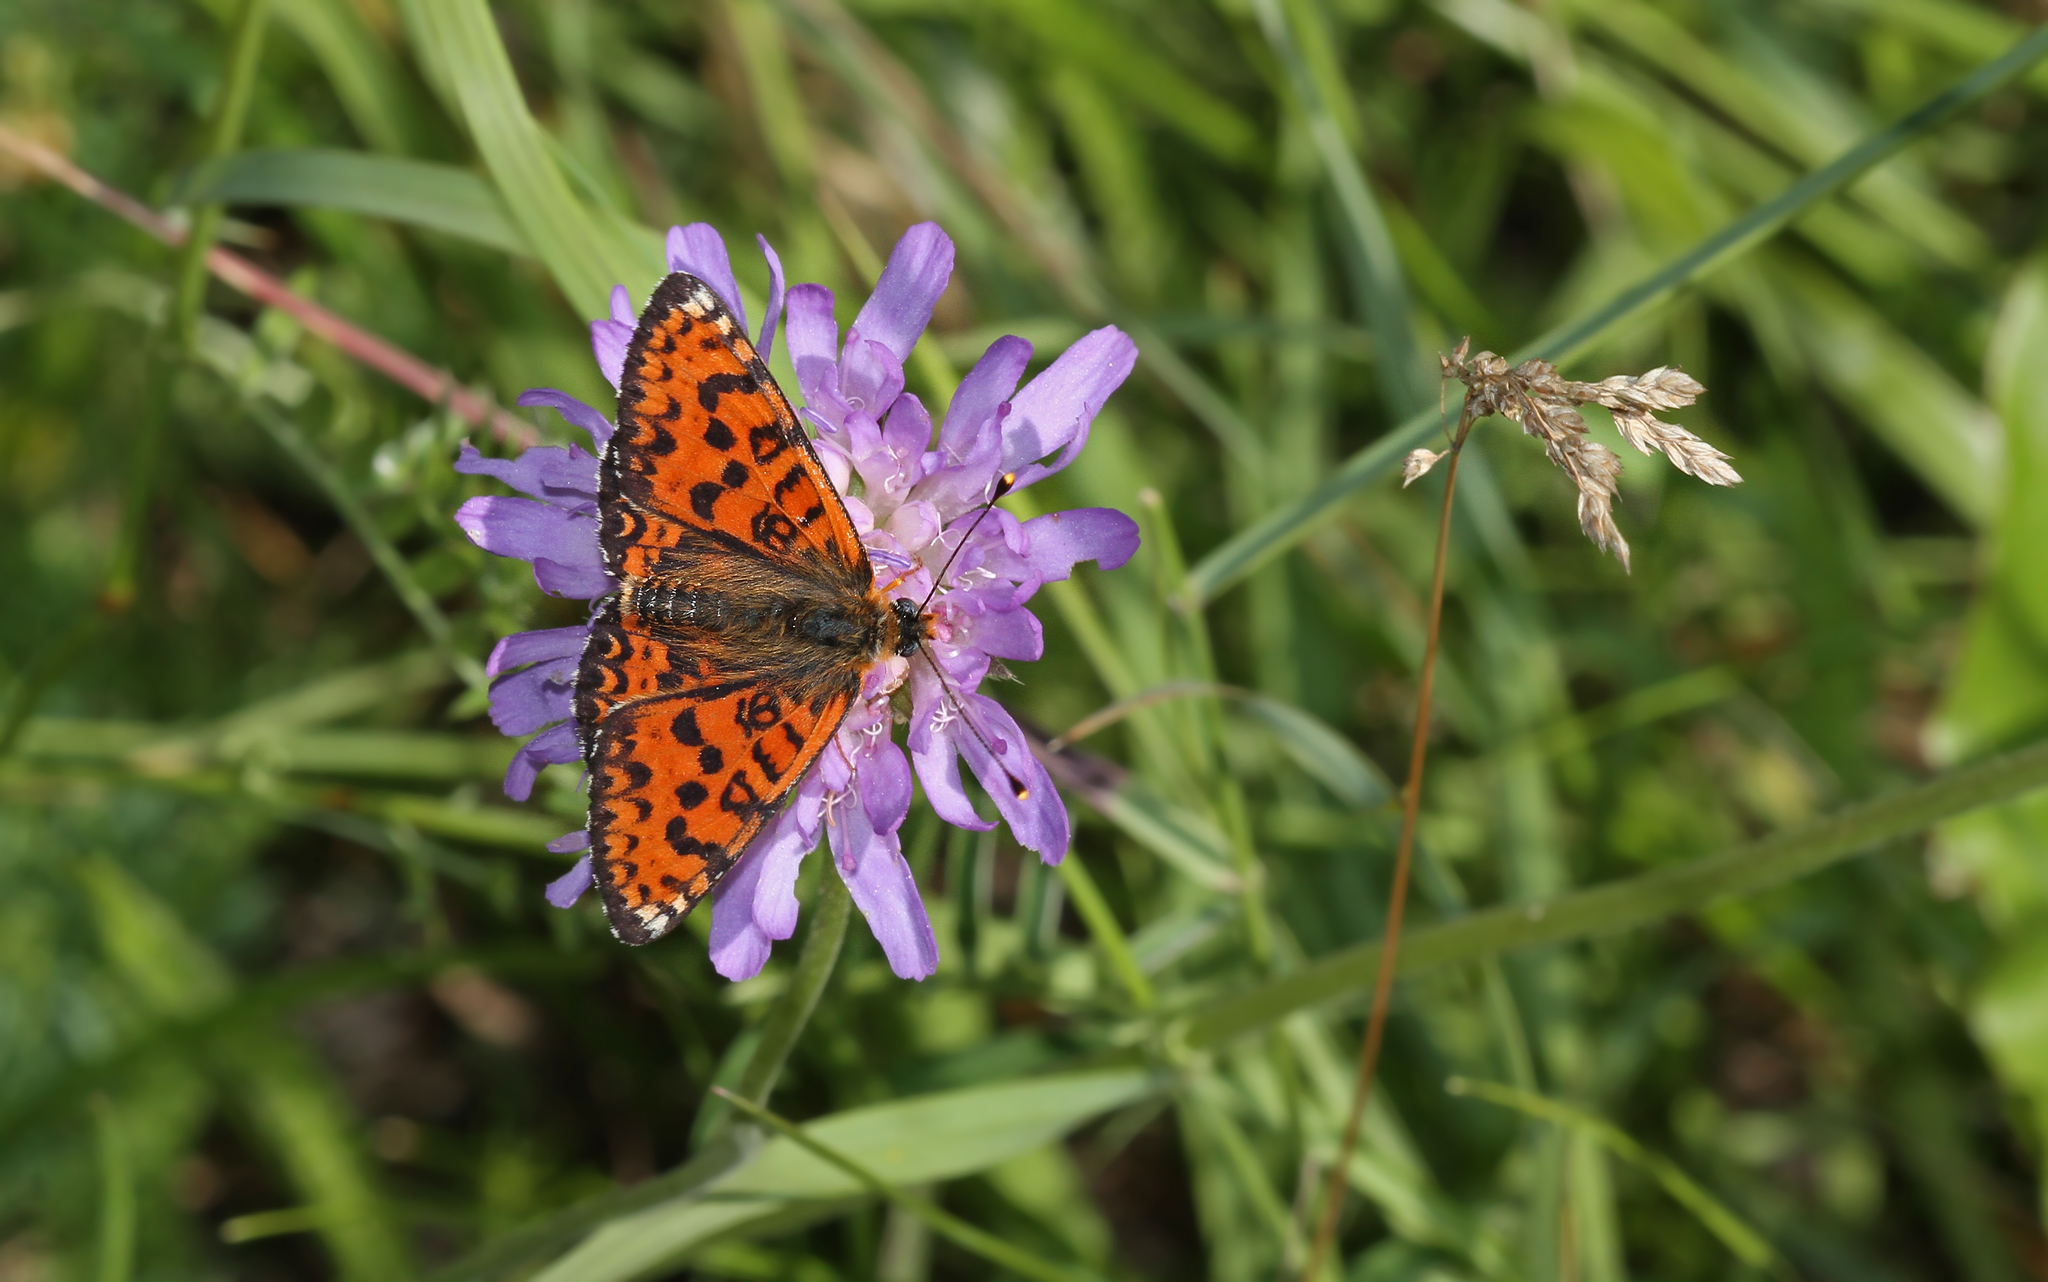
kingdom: Animalia
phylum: Arthropoda
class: Insecta
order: Lepidoptera
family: Nymphalidae
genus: Melitaea
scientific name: Melitaea didyma
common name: Spotted fritillary
